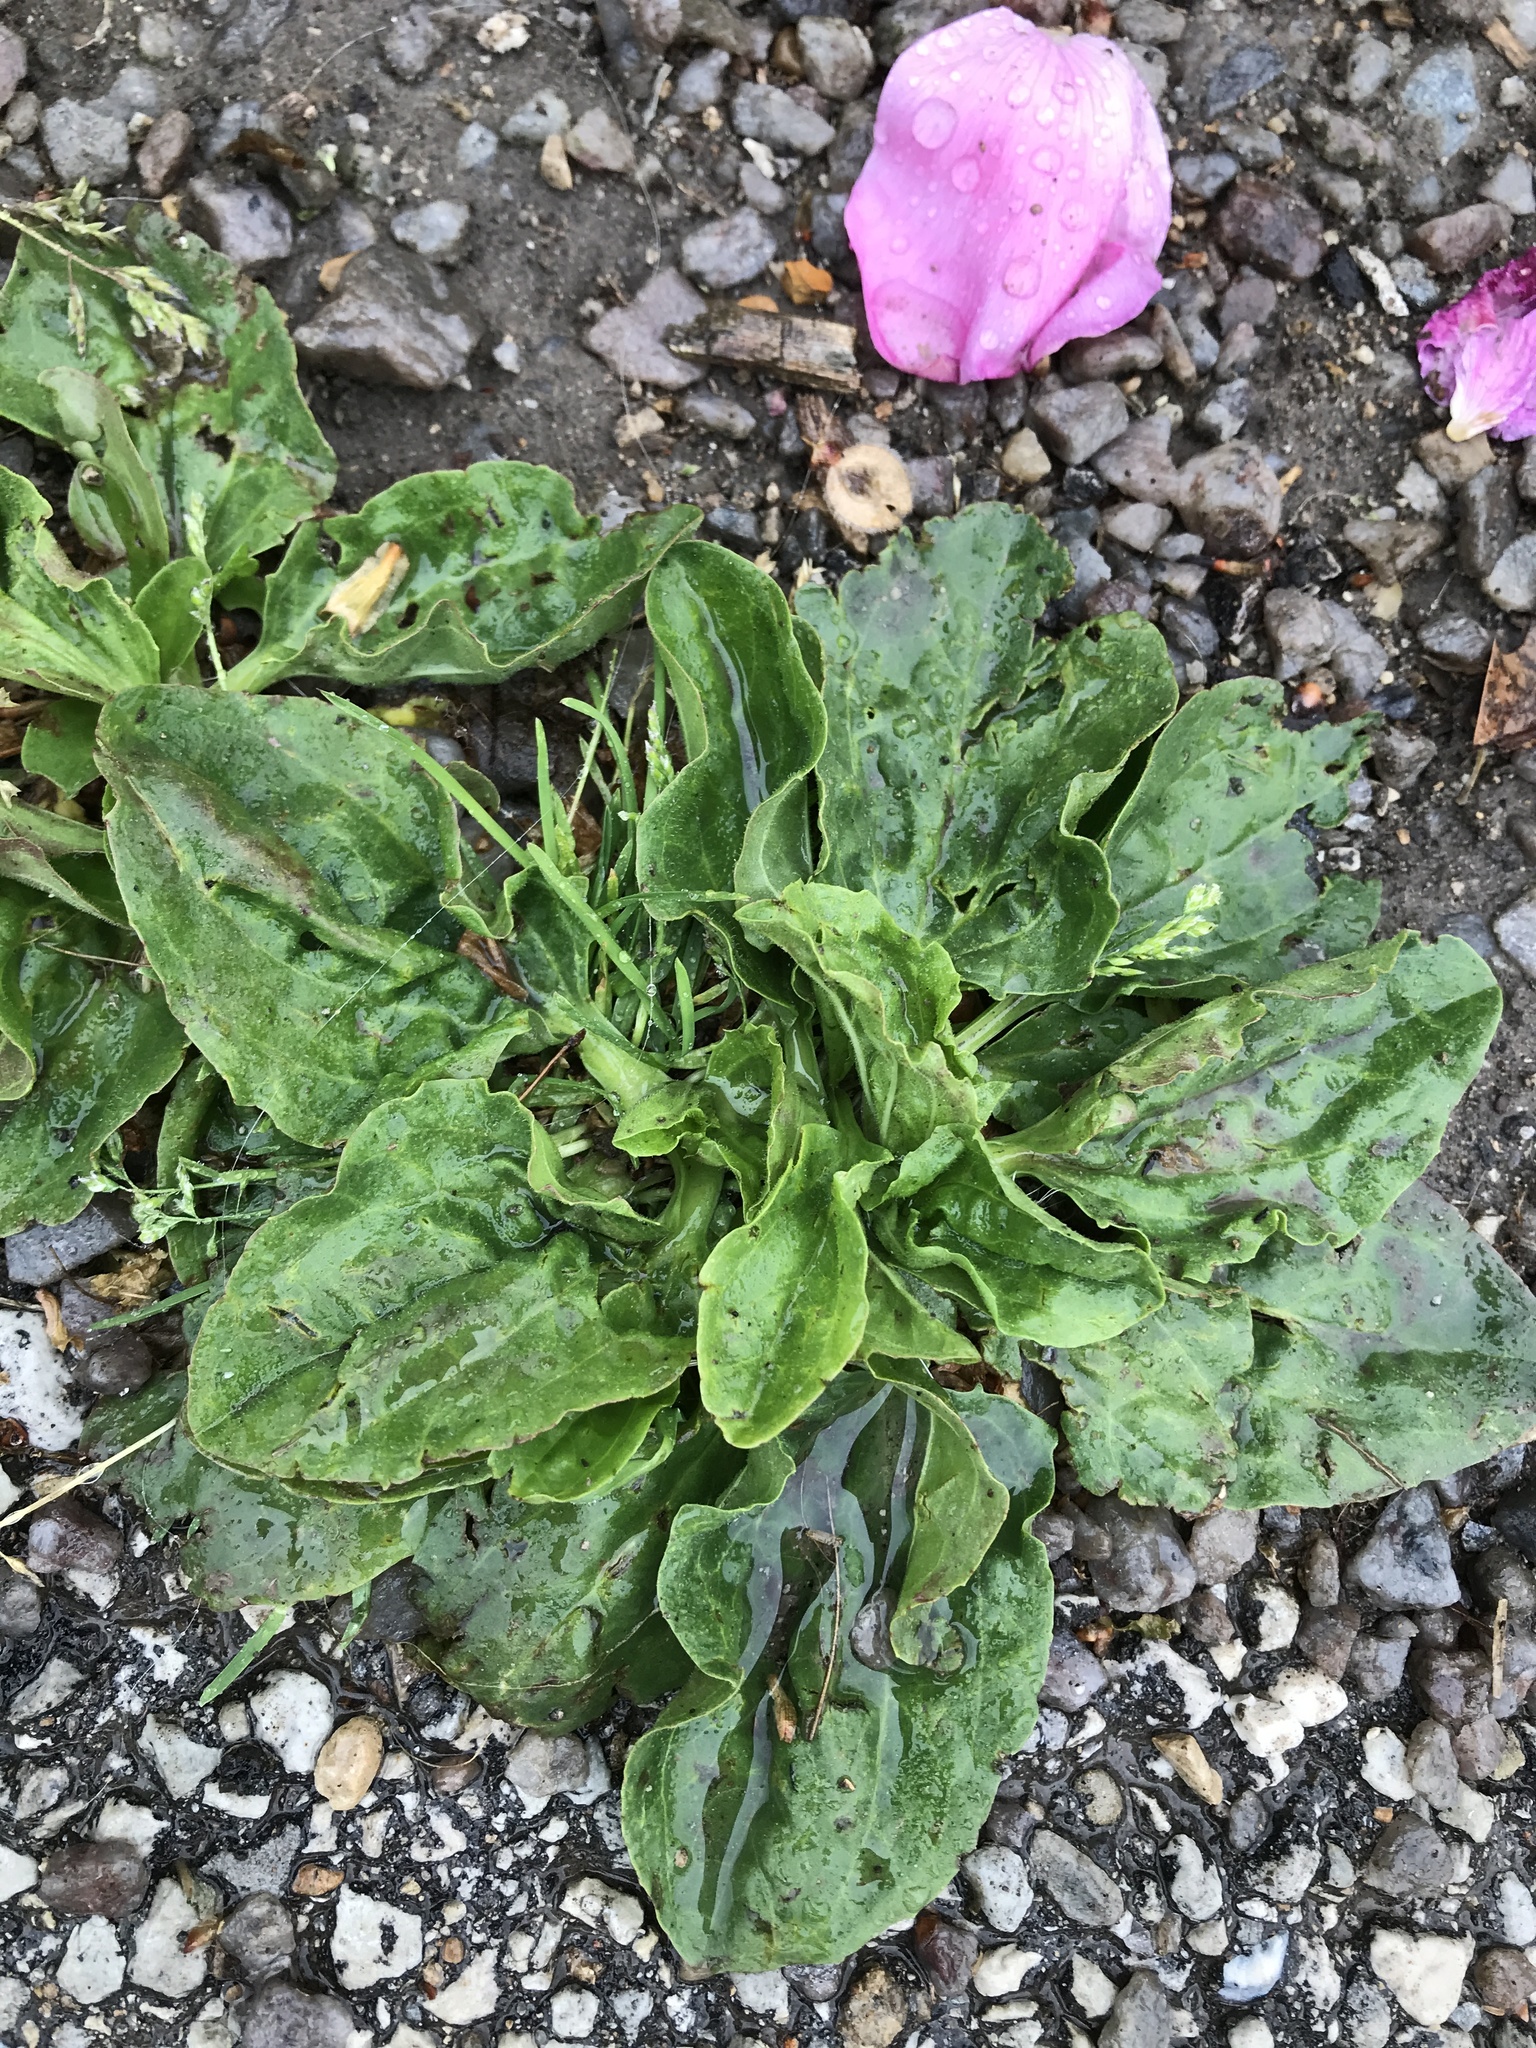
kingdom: Plantae
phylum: Tracheophyta
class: Magnoliopsida
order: Lamiales
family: Plantaginaceae
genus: Plantago
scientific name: Plantago major
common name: Common plantain
